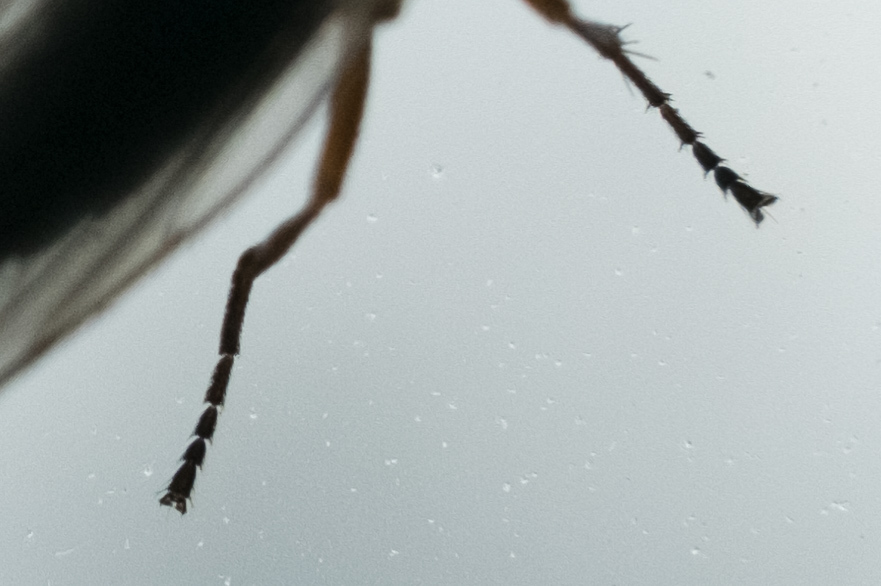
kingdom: Animalia
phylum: Arthropoda
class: Insecta
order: Diptera
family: Heleomyzidae
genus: Orbellia
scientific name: Orbellia barbata
